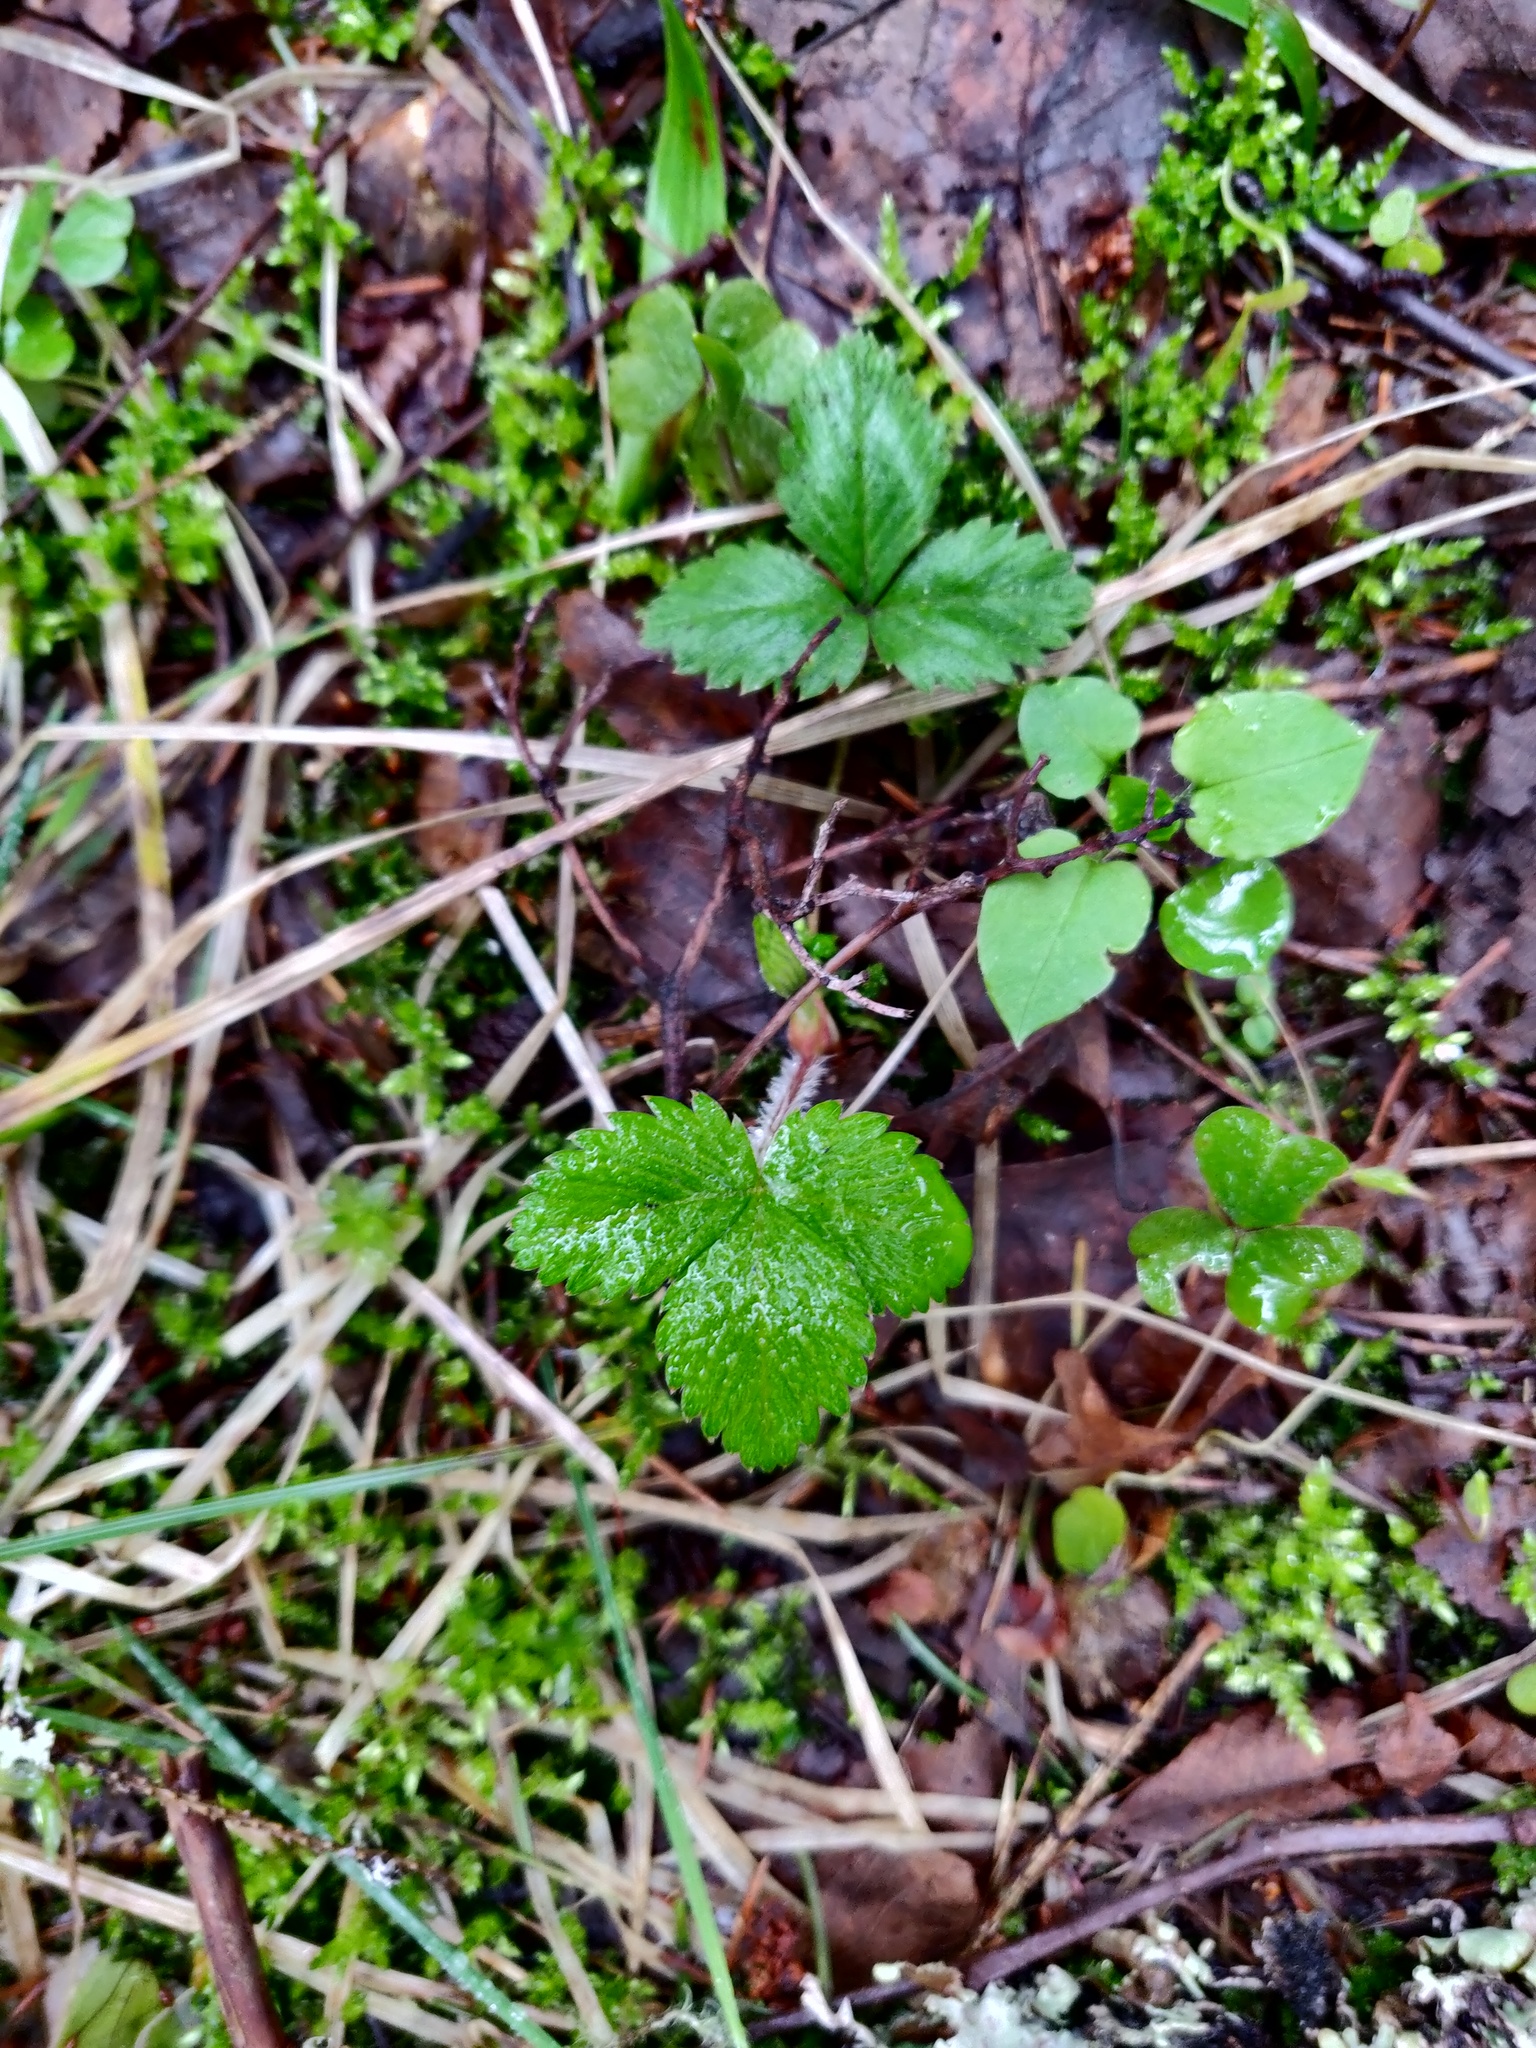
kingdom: Plantae
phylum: Tracheophyta
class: Magnoliopsida
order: Rosales
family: Rosaceae
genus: Fragaria
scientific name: Fragaria vesca
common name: Wild strawberry
